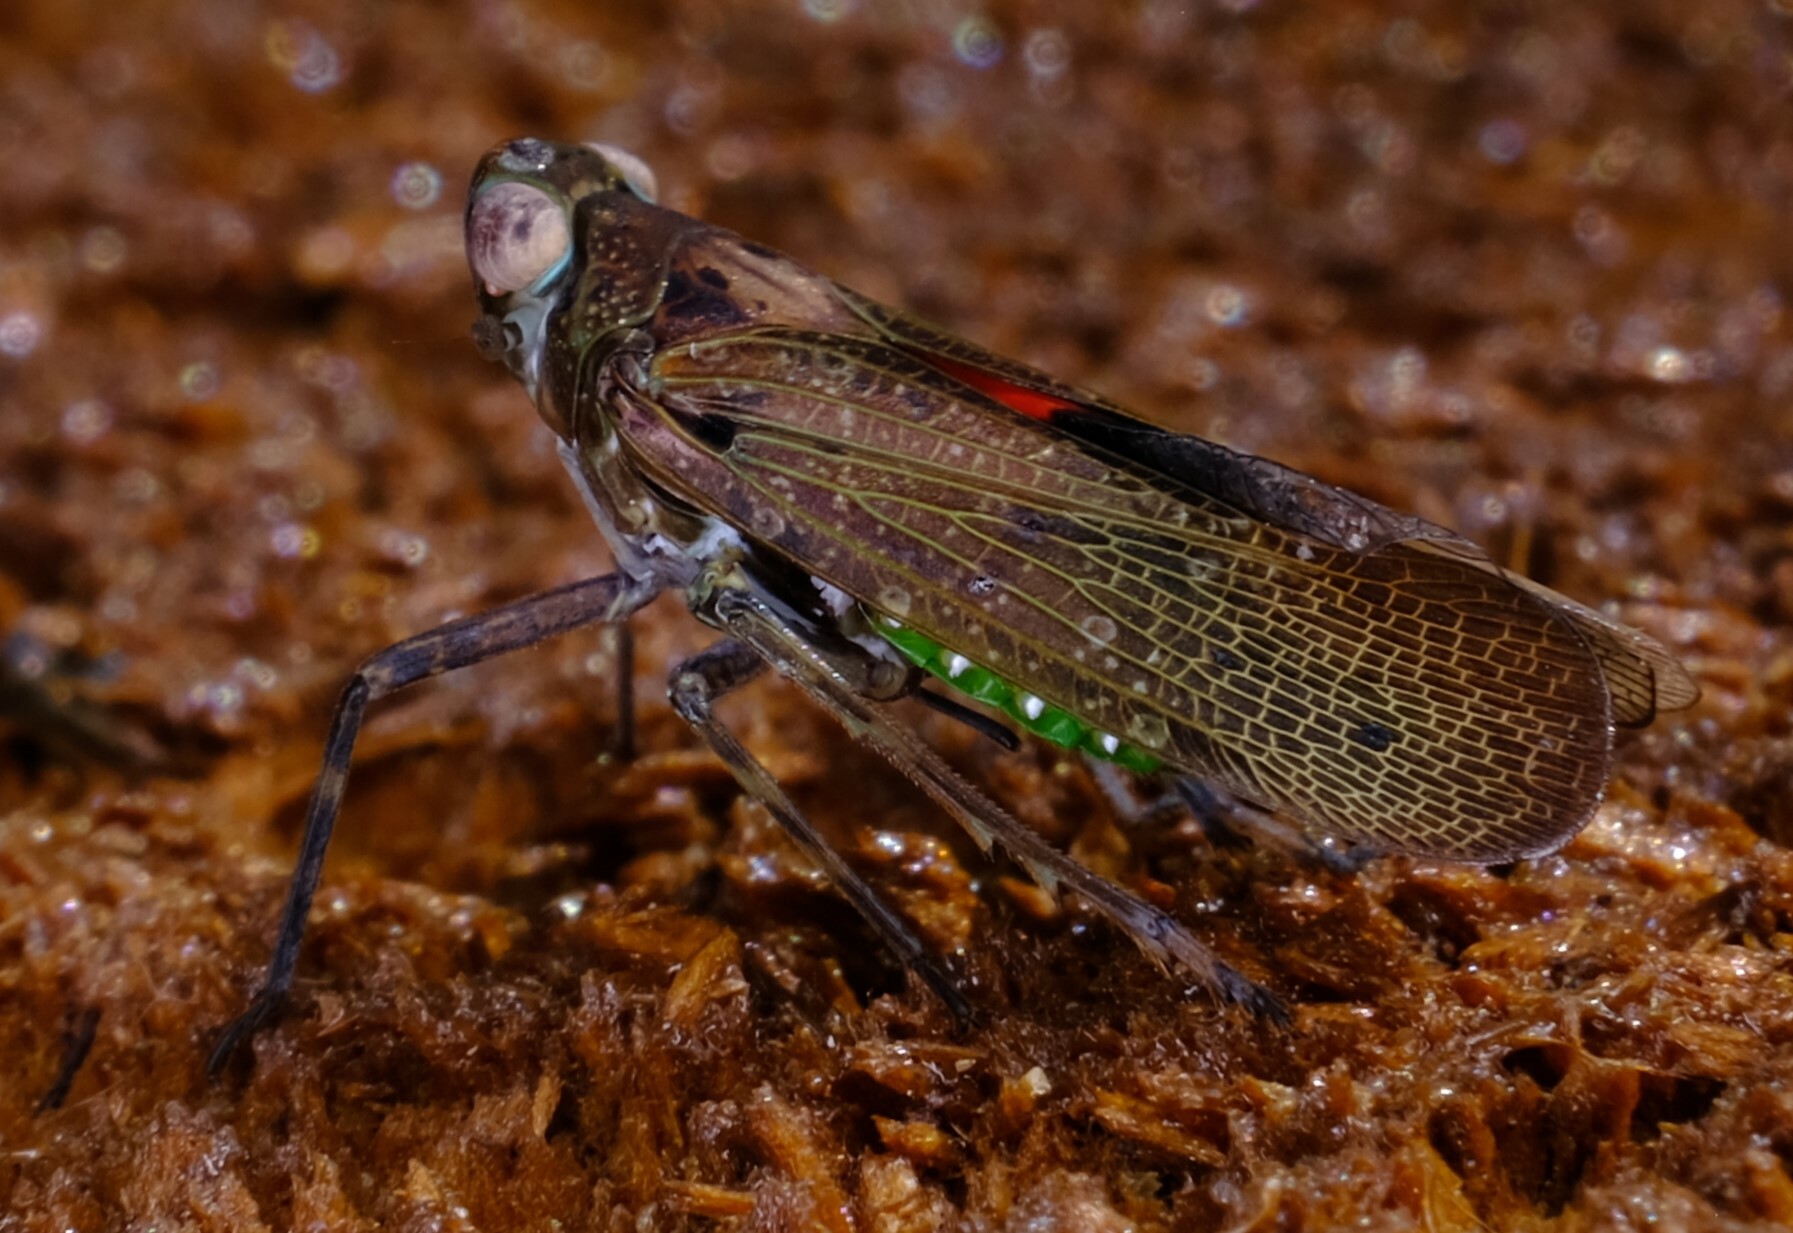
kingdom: Animalia
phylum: Arthropoda
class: Insecta
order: Hemiptera
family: Fulgoridae
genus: Desudaba
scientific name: Desudaba psittacus
